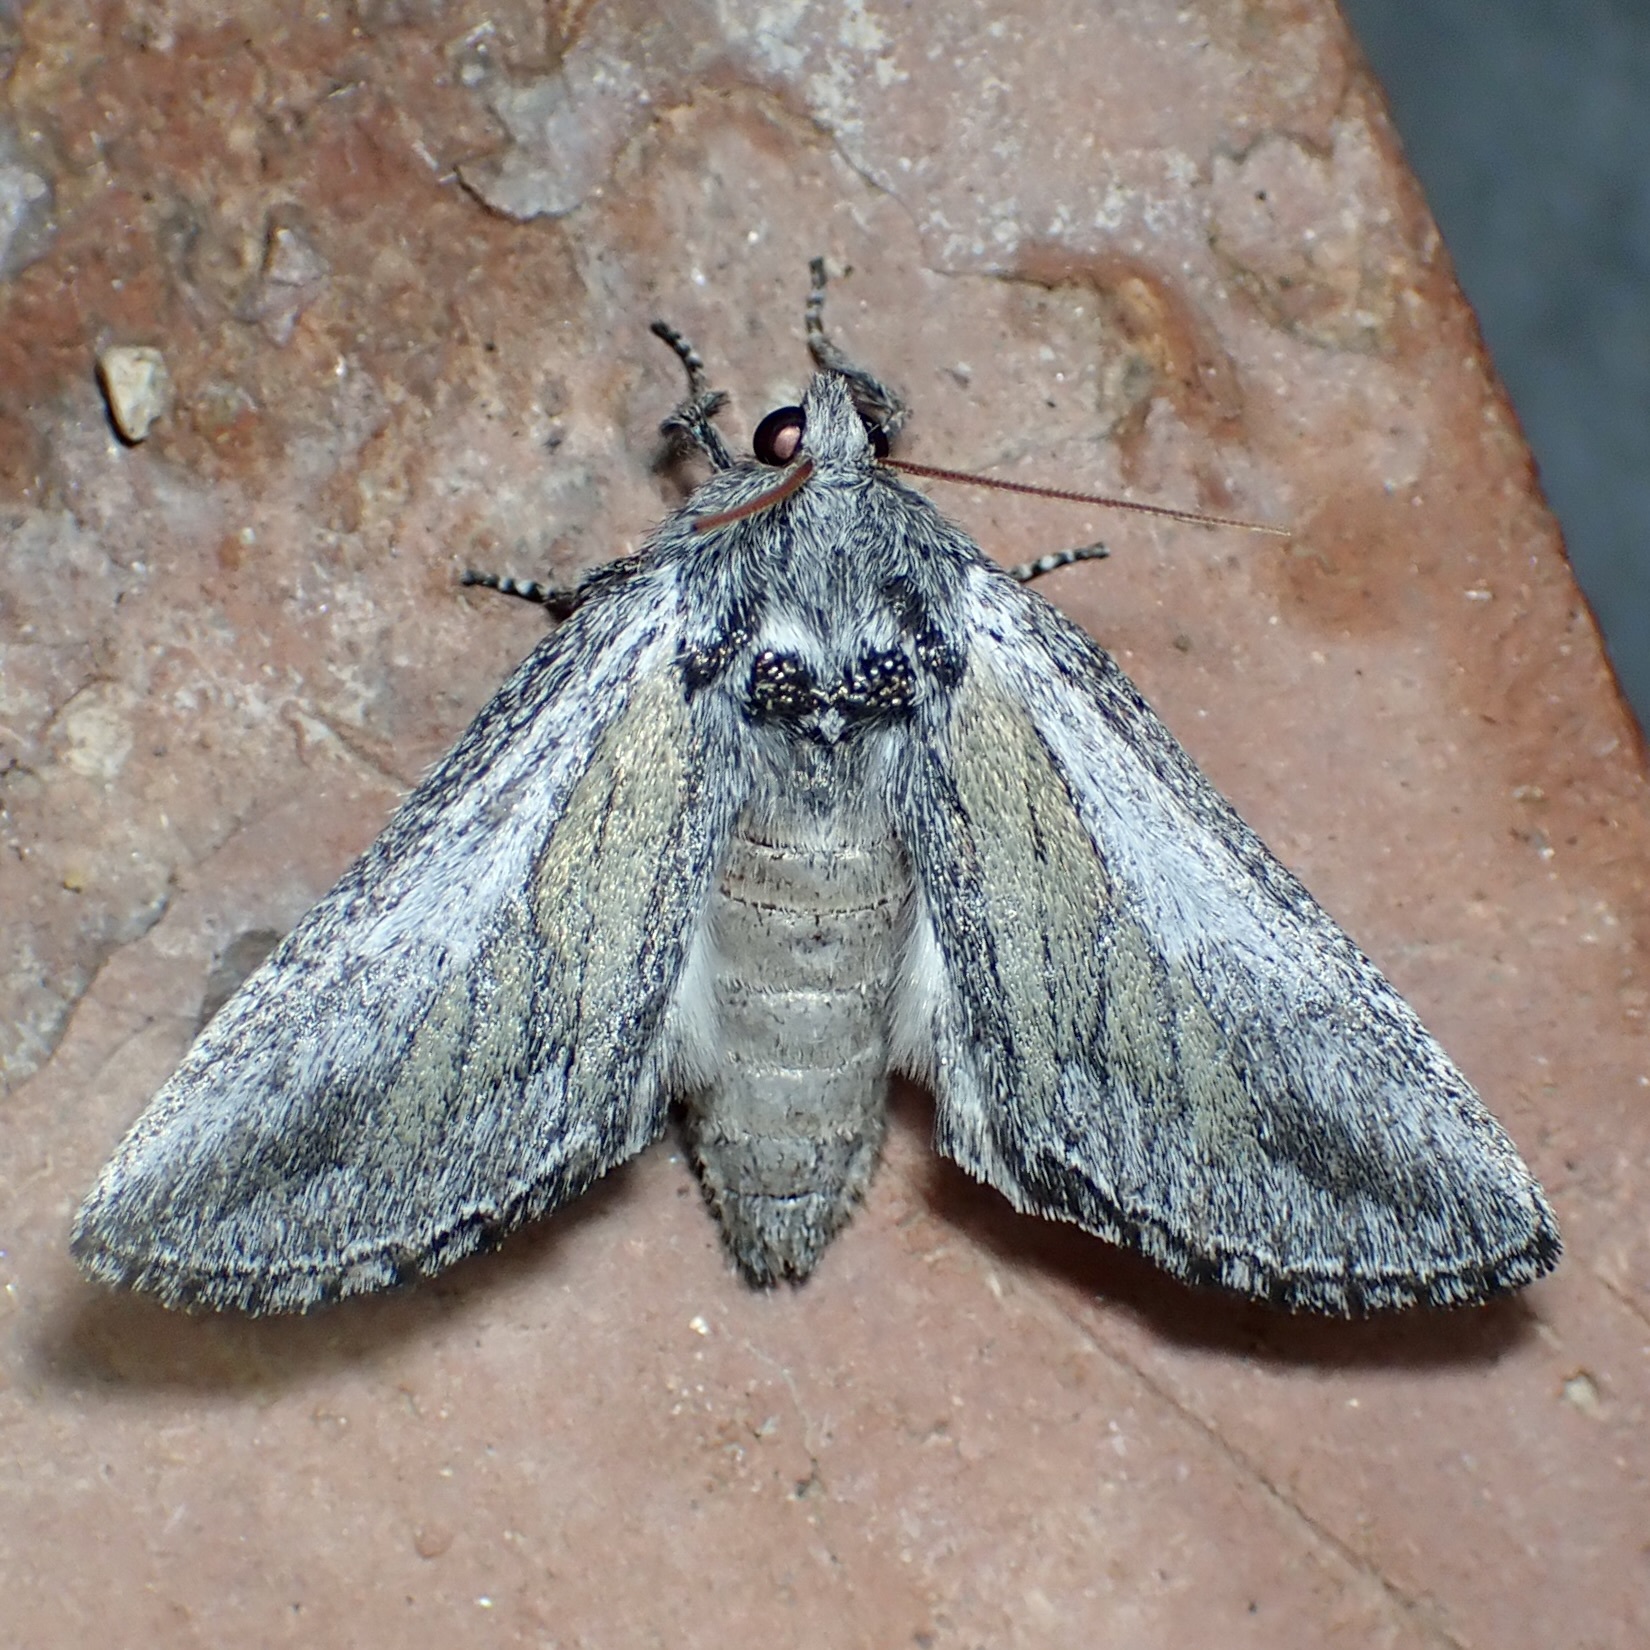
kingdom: Animalia
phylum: Arthropoda
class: Insecta
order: Lepidoptera
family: Notodontidae
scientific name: Notodontidae
